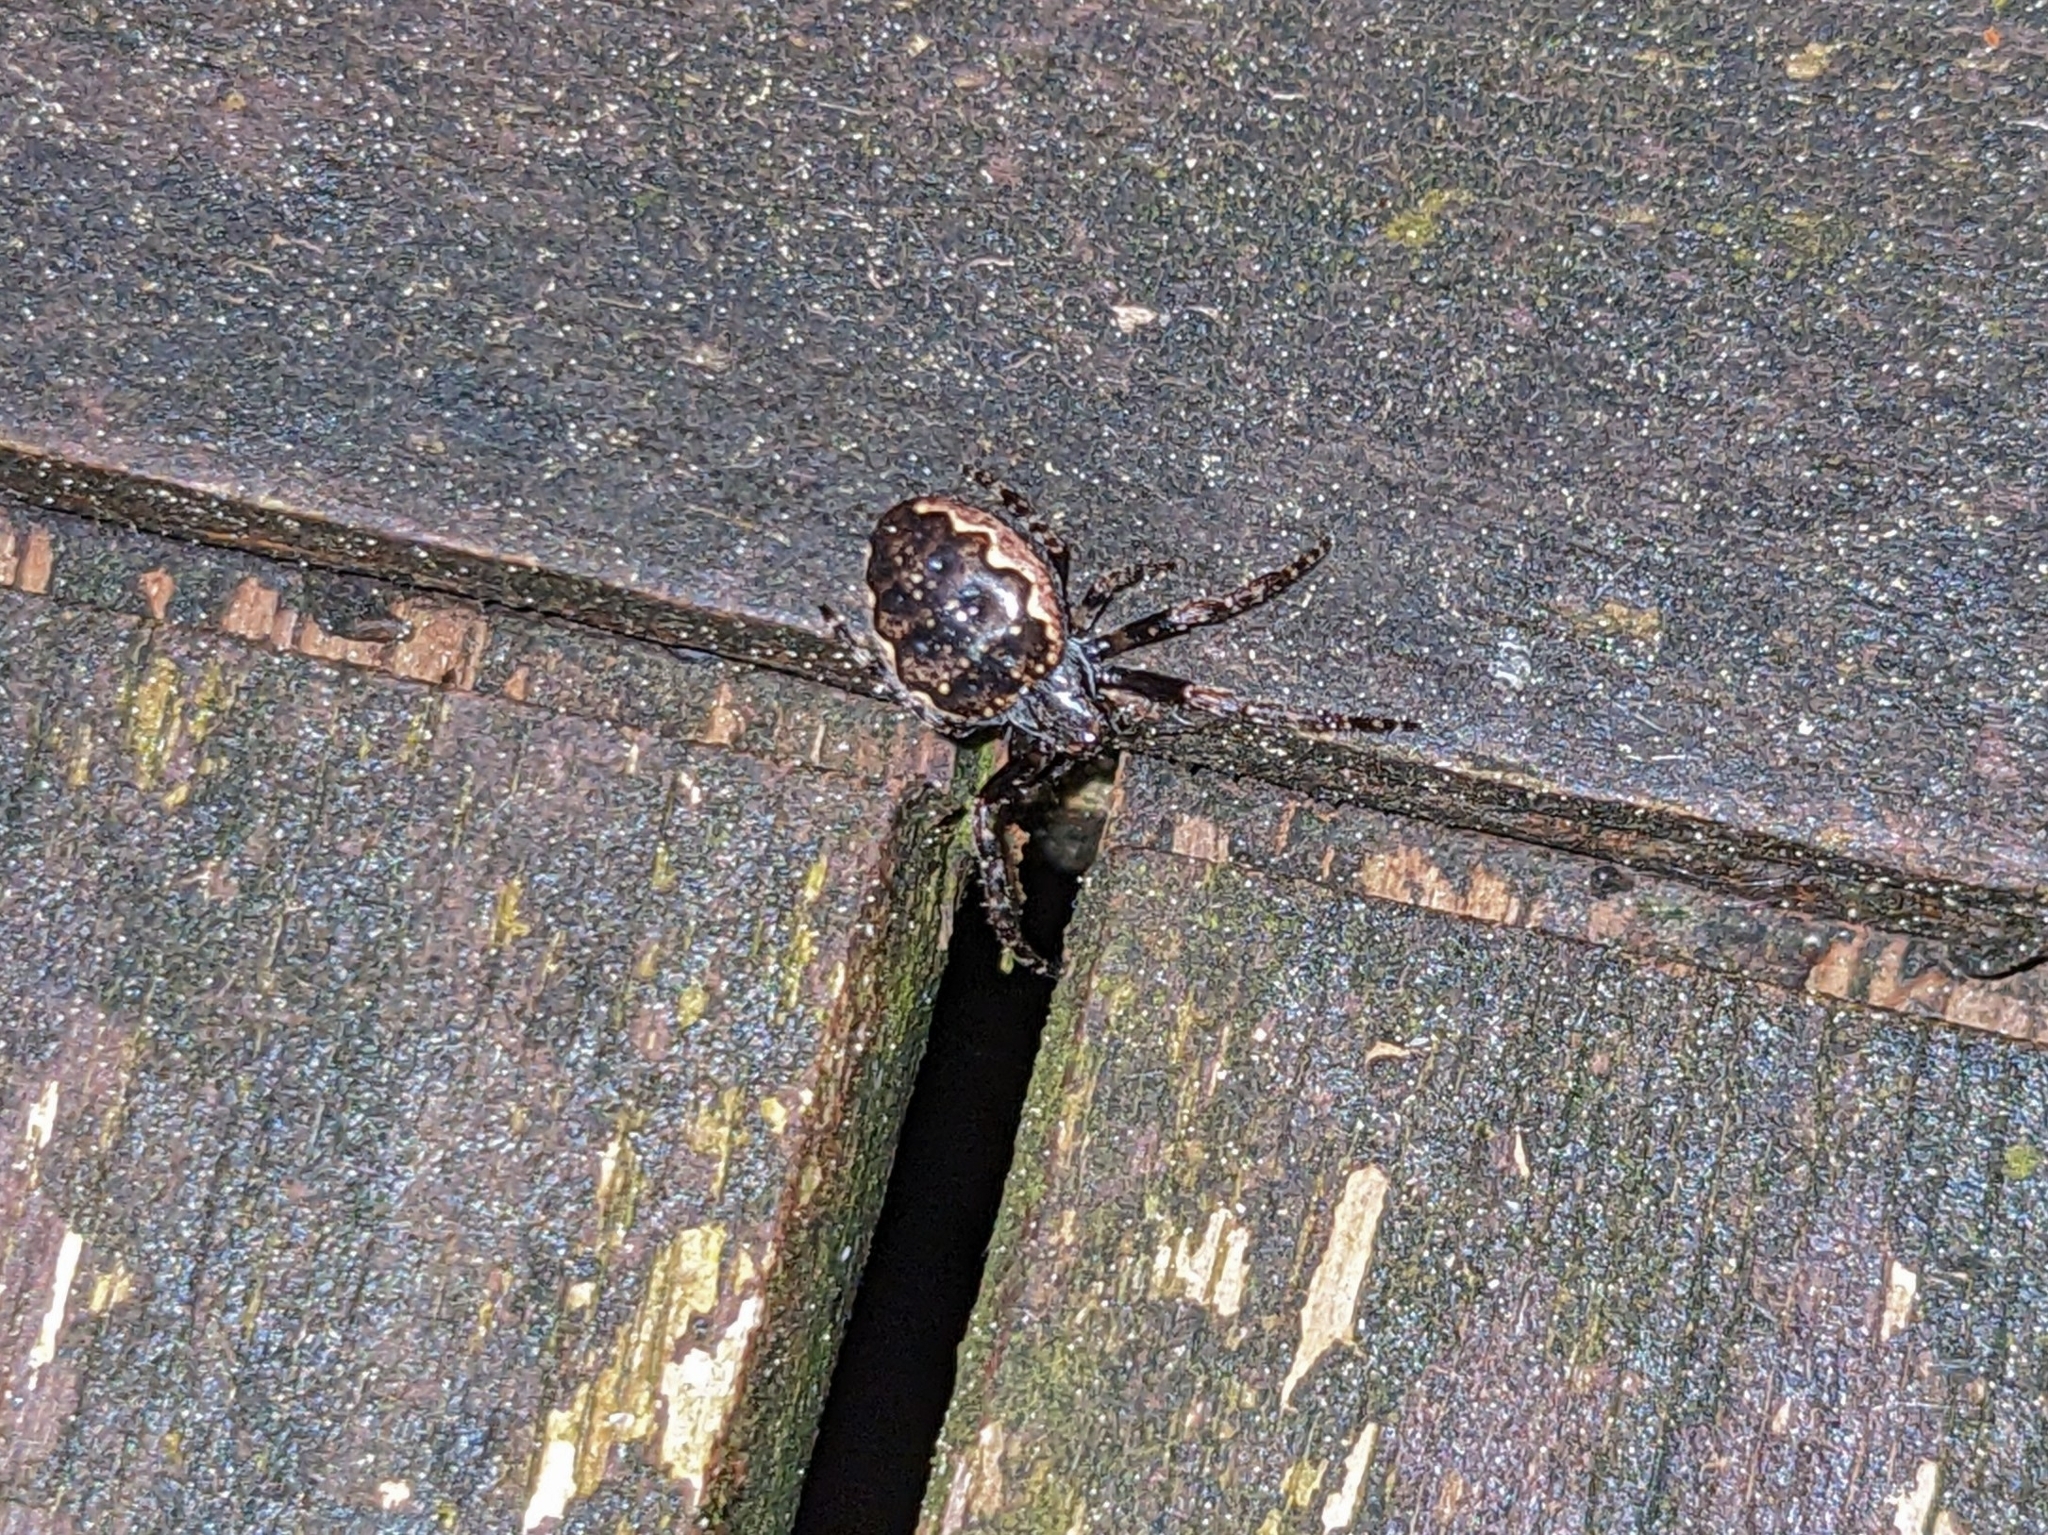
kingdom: Animalia
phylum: Arthropoda
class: Arachnida
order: Araneae
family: Araneidae
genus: Nuctenea
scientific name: Nuctenea umbratica
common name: Toad spider
